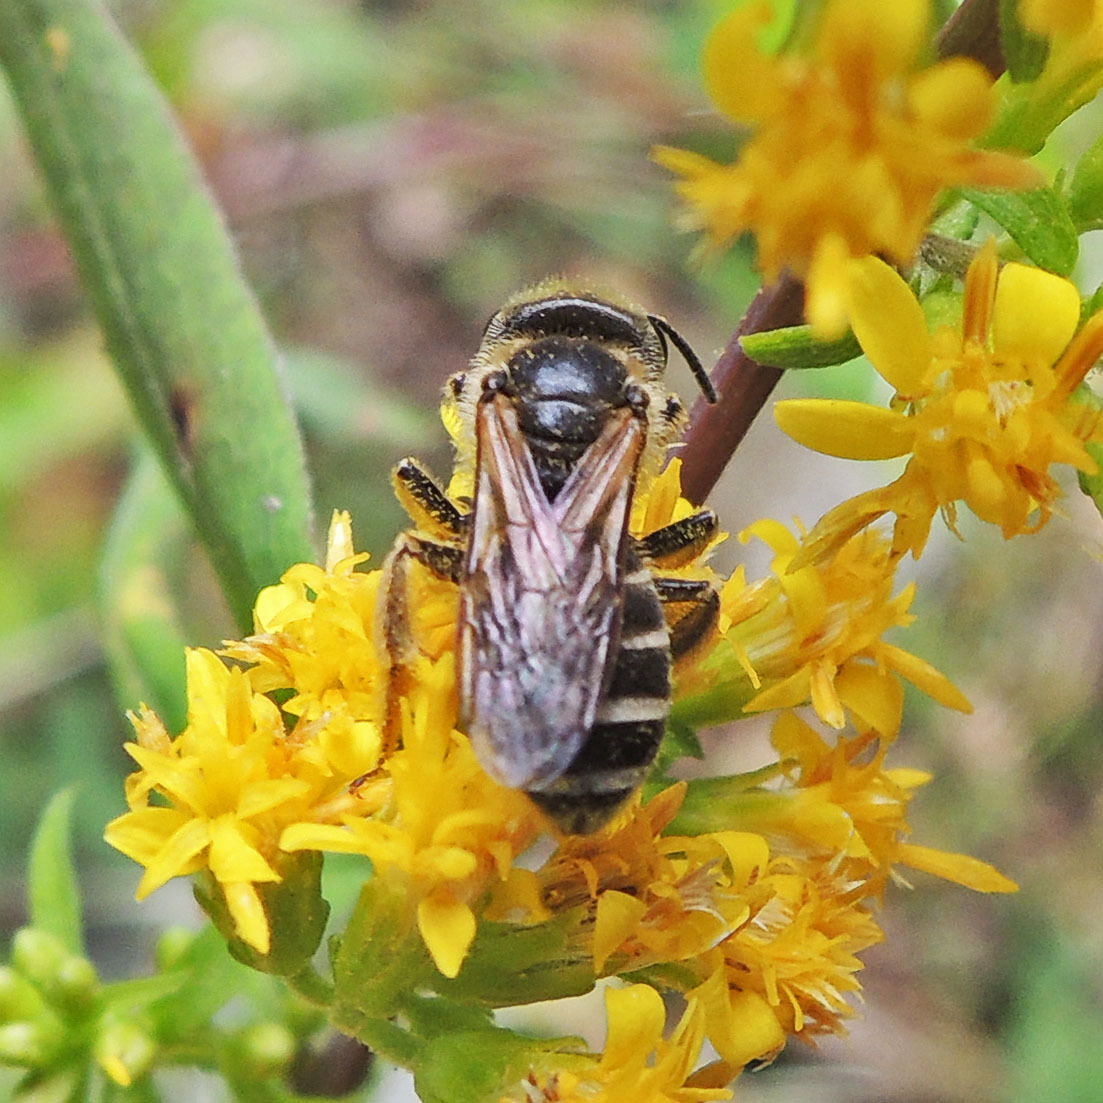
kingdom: Animalia
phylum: Arthropoda
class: Insecta
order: Hymenoptera
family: Halictidae
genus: Halictus
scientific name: Halictus ligatus
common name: Ligated furrow bee
